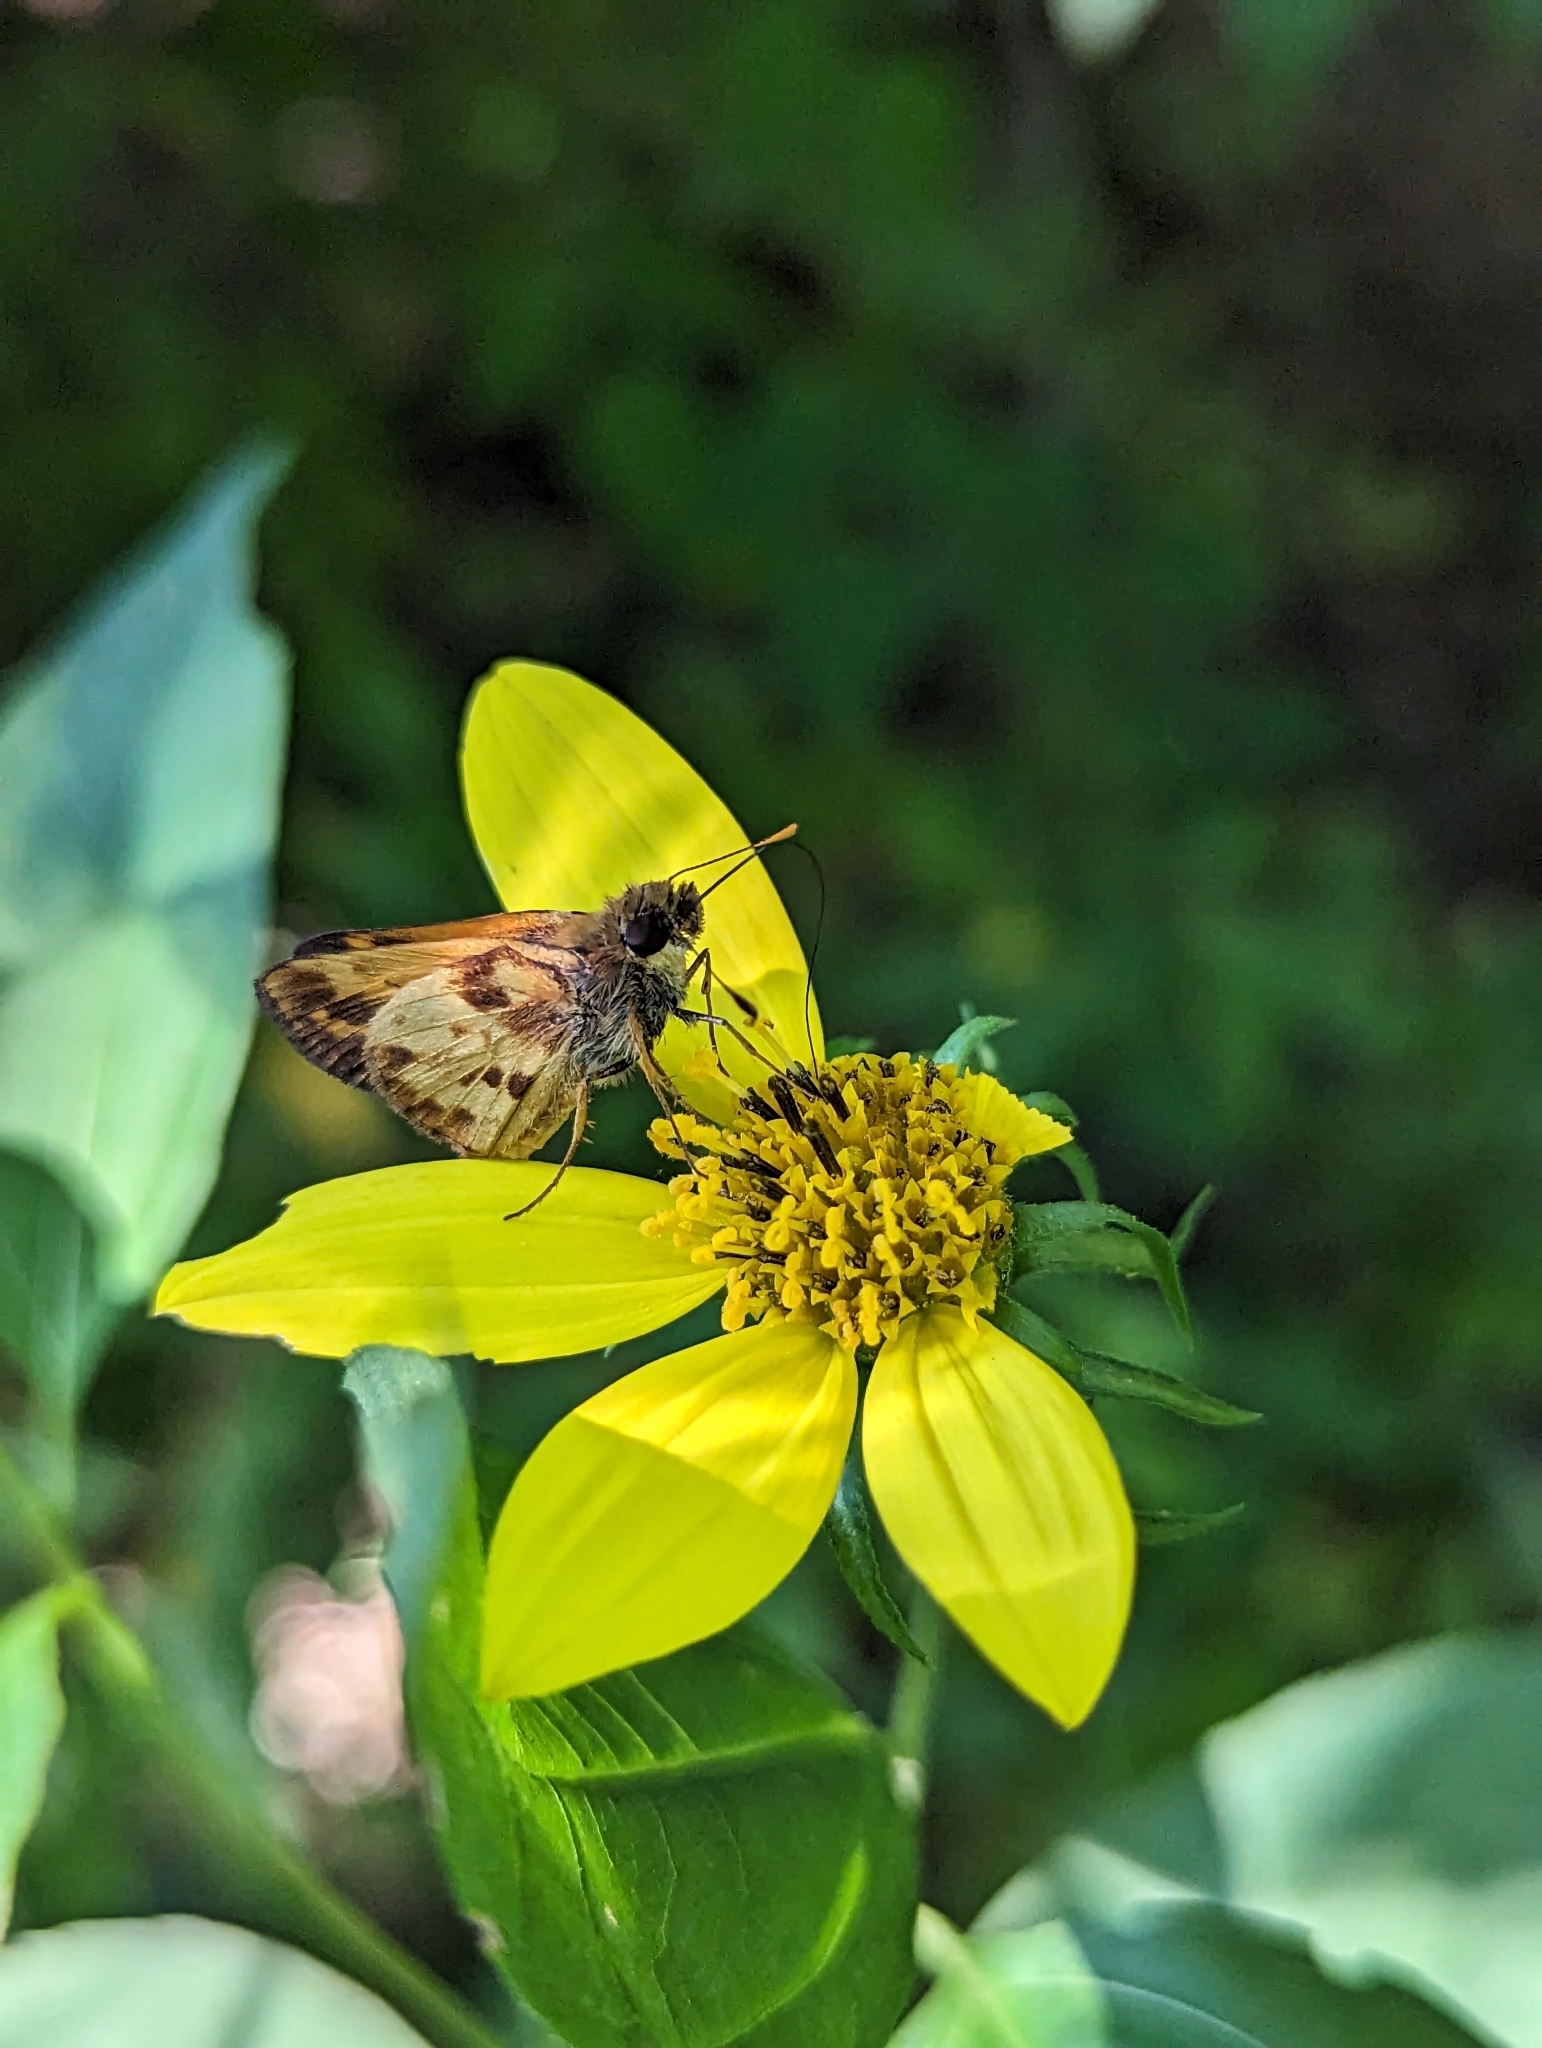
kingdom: Animalia
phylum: Arthropoda
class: Insecta
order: Lepidoptera
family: Hesperiidae
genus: Lon
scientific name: Lon zabulon
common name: Zabulon skipper
